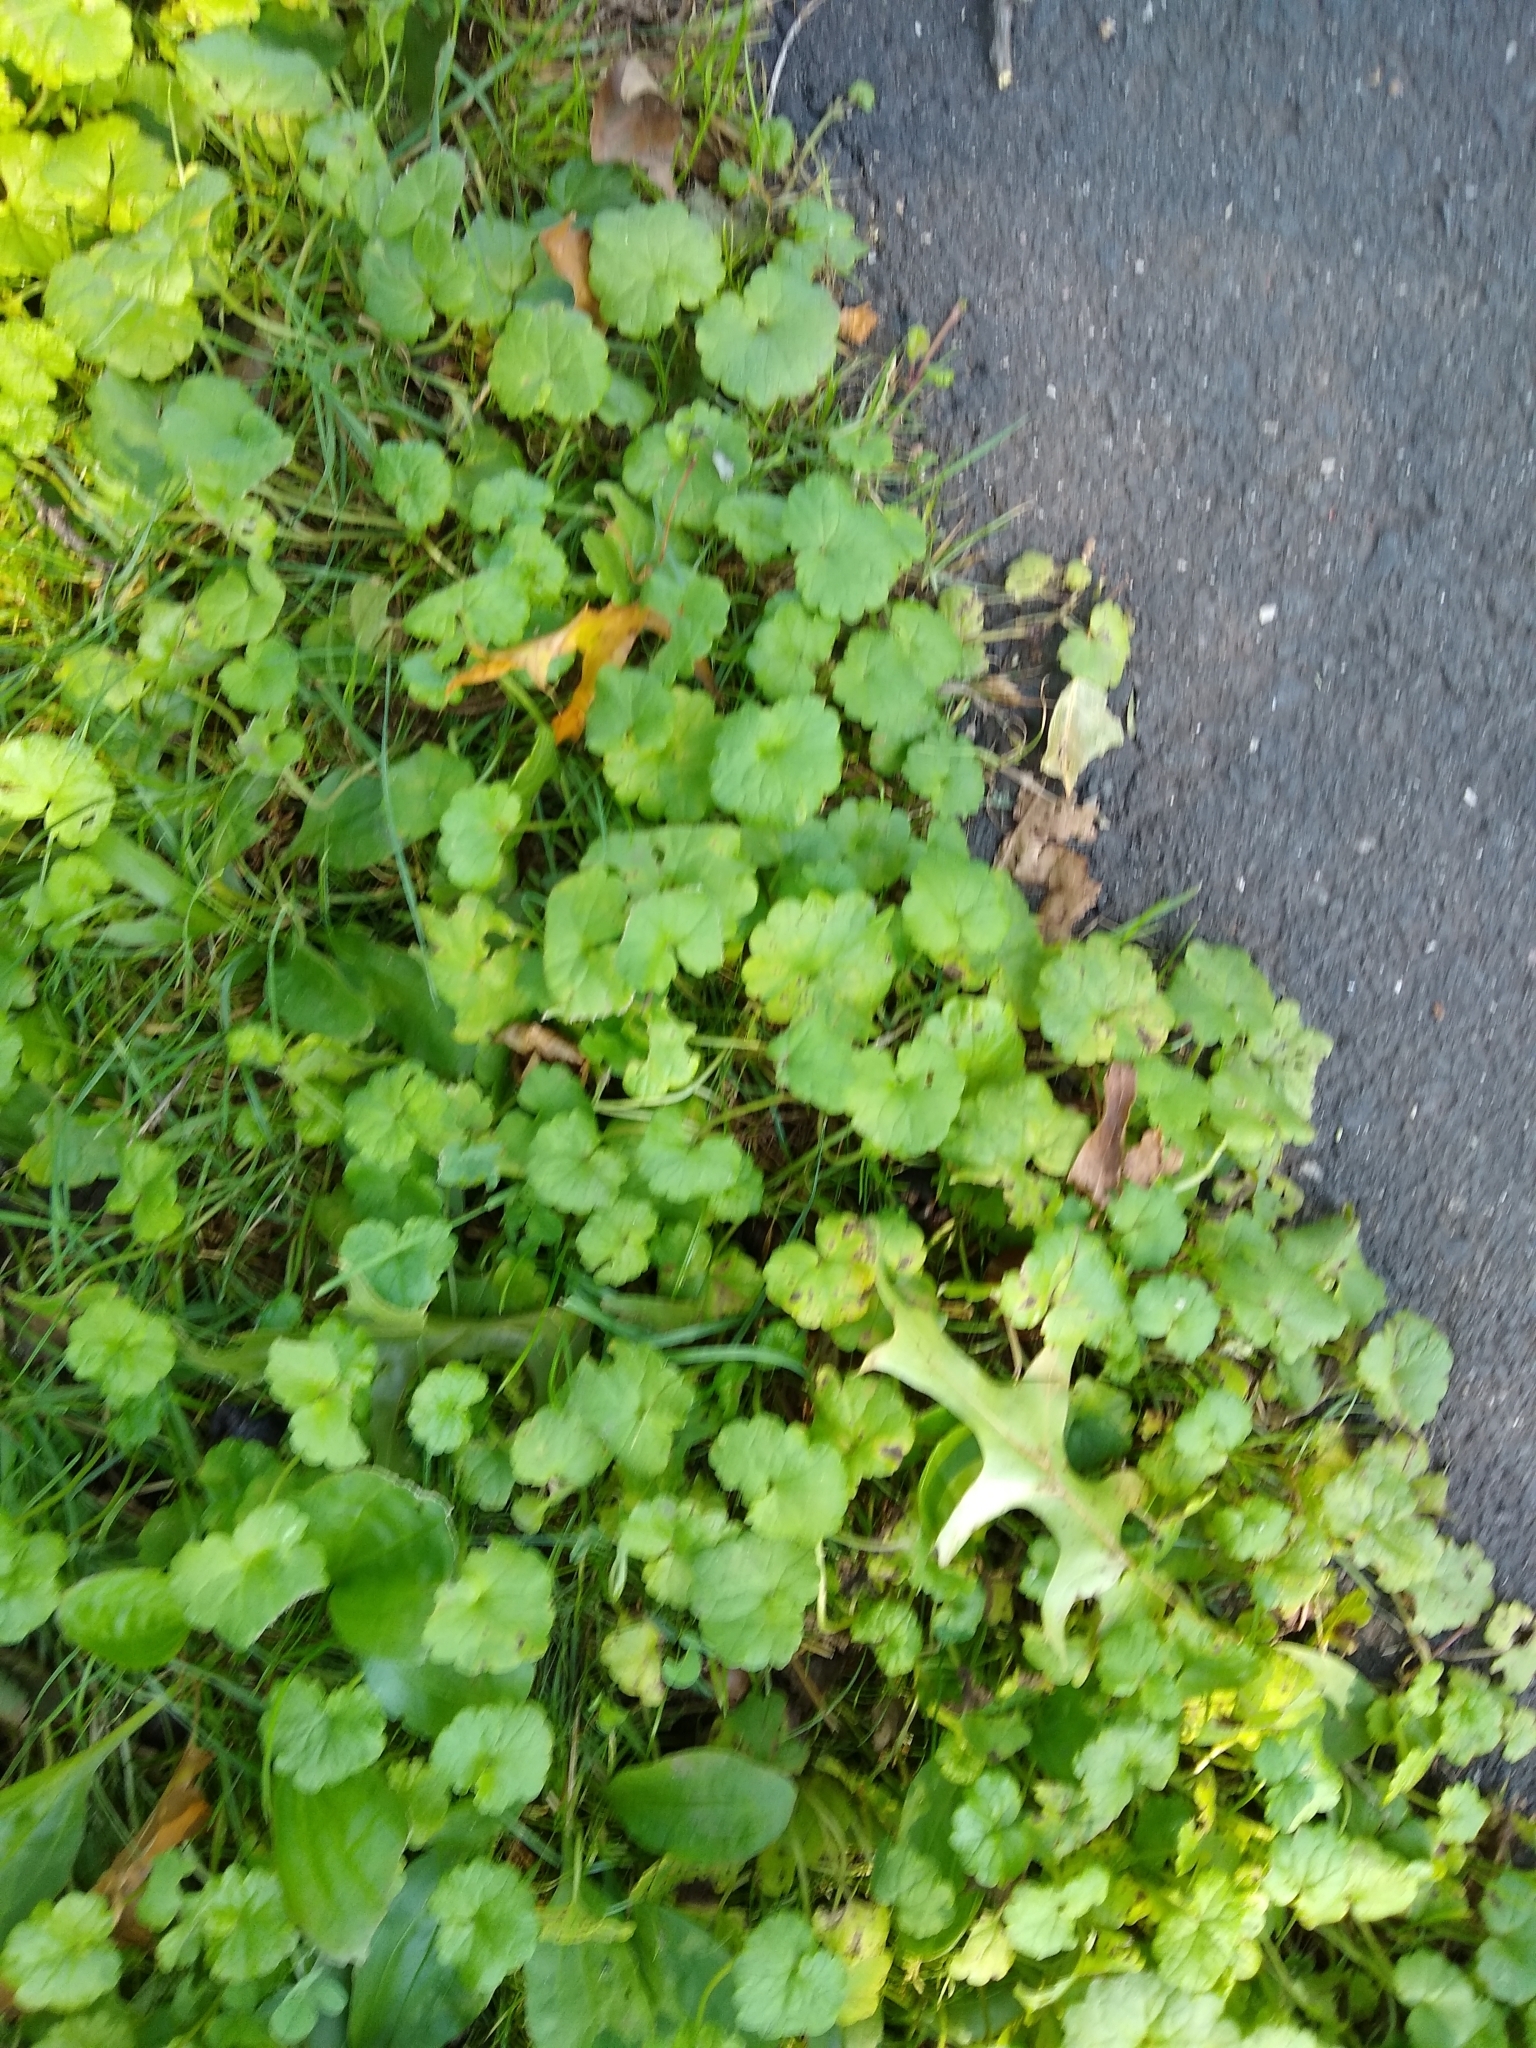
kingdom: Plantae
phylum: Tracheophyta
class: Magnoliopsida
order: Lamiales
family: Lamiaceae
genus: Glechoma
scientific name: Glechoma hederacea
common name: Ground ivy
